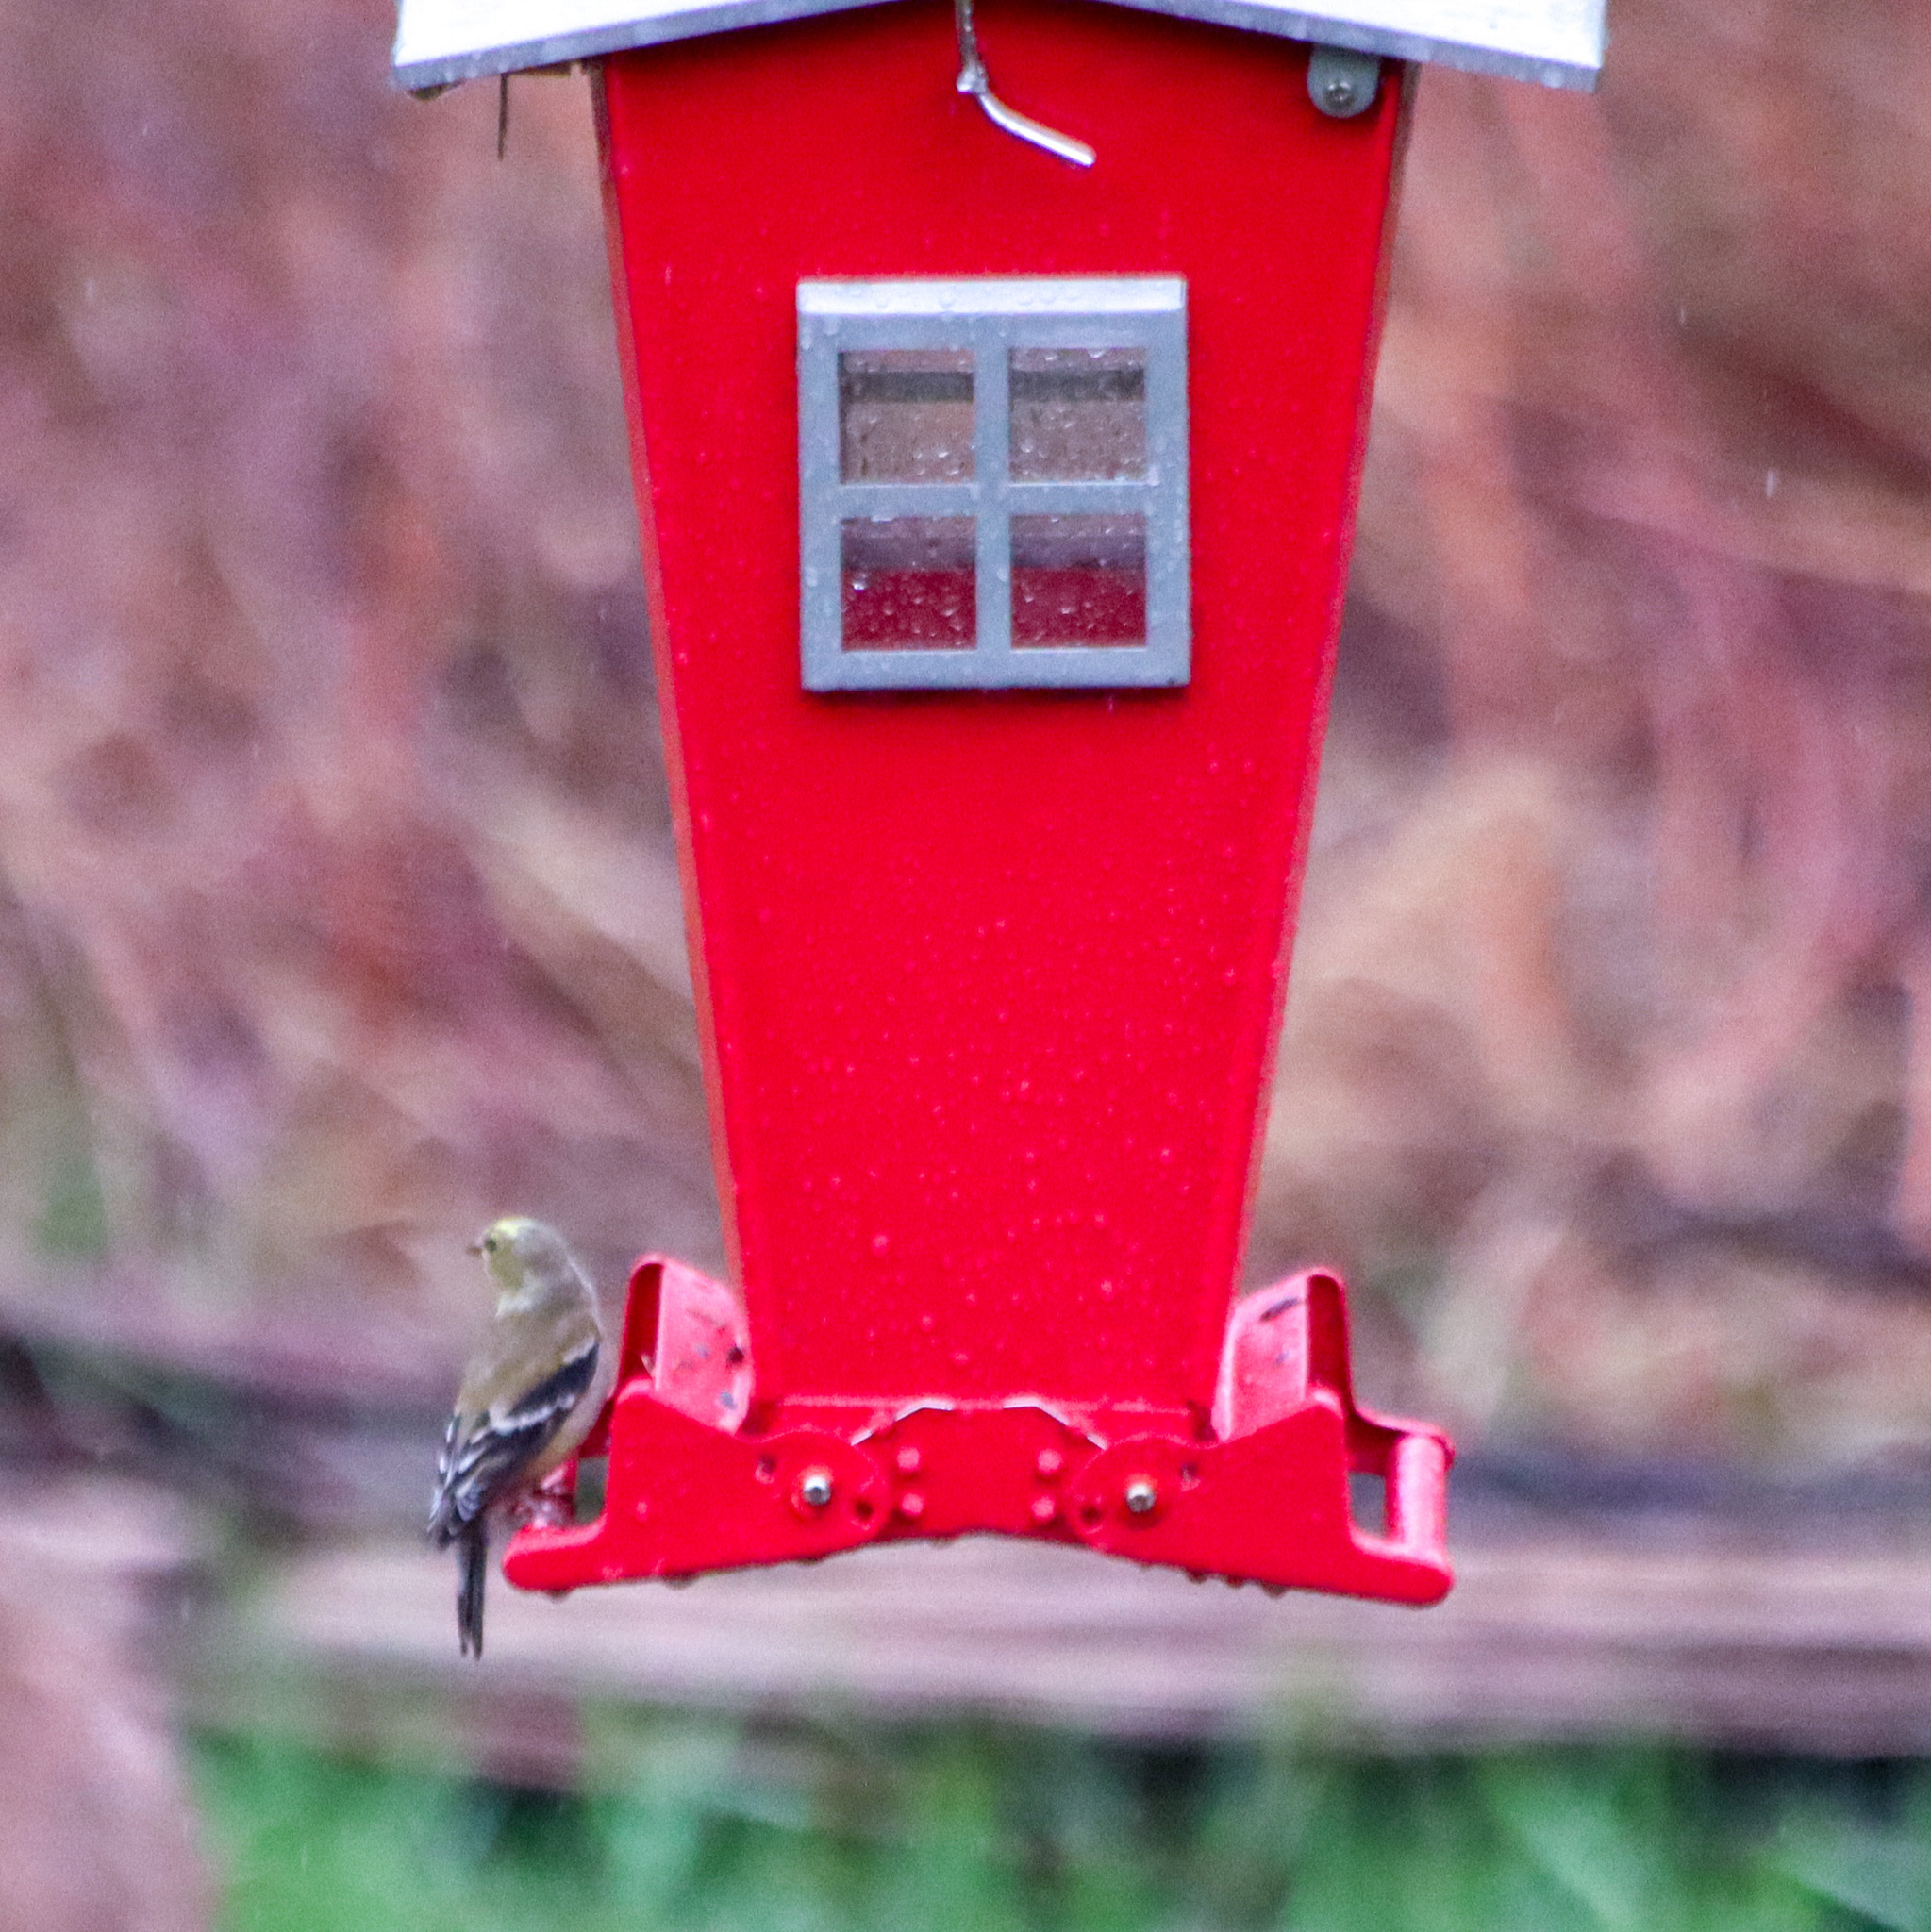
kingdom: Animalia
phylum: Chordata
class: Aves
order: Passeriformes
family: Fringillidae
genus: Spinus
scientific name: Spinus tristis
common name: American goldfinch
